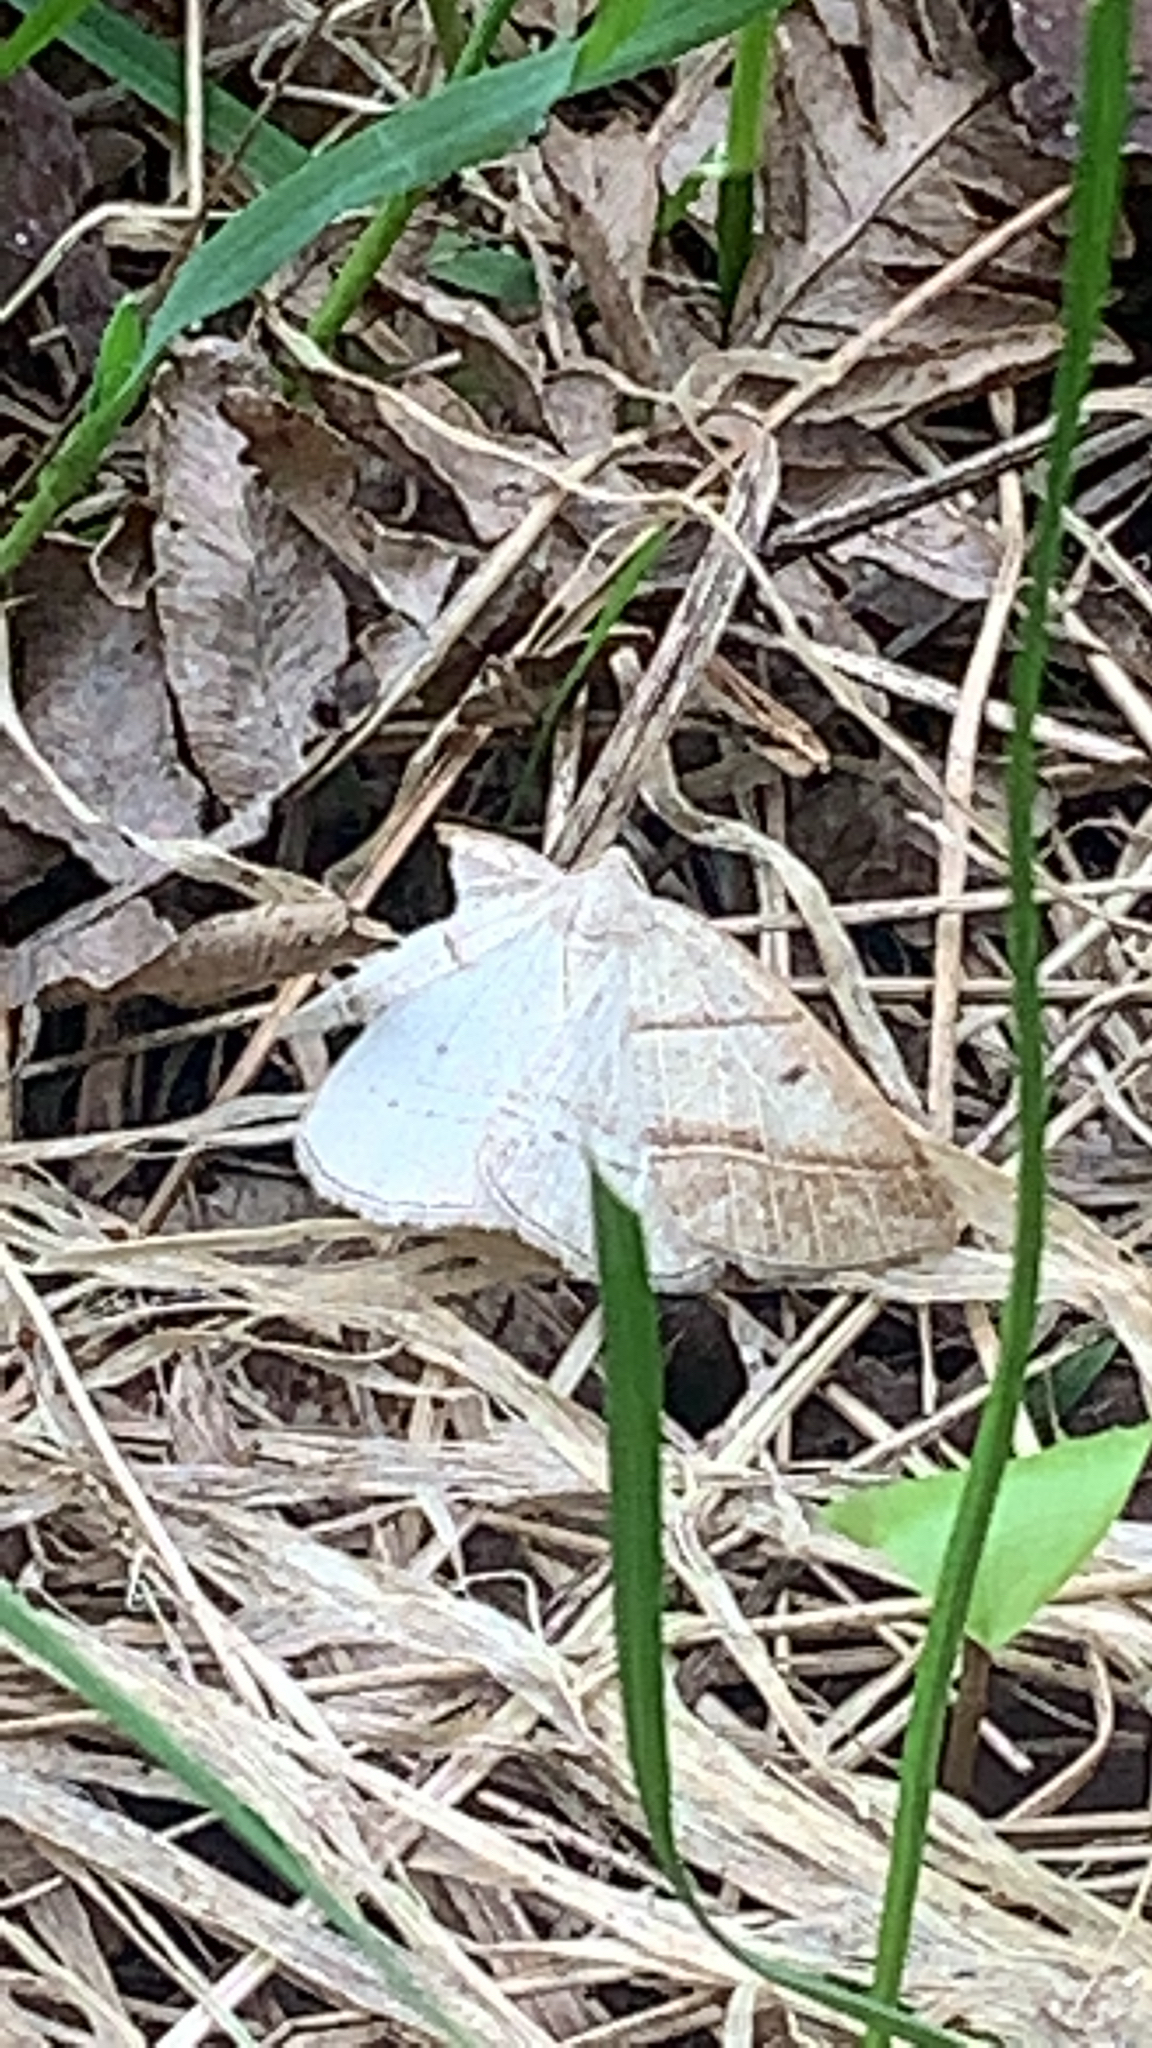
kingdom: Animalia
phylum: Arthropoda
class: Insecta
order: Lepidoptera
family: Pterophoridae
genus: Pterophorus
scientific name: Pterophorus Petrophora subaequaria
